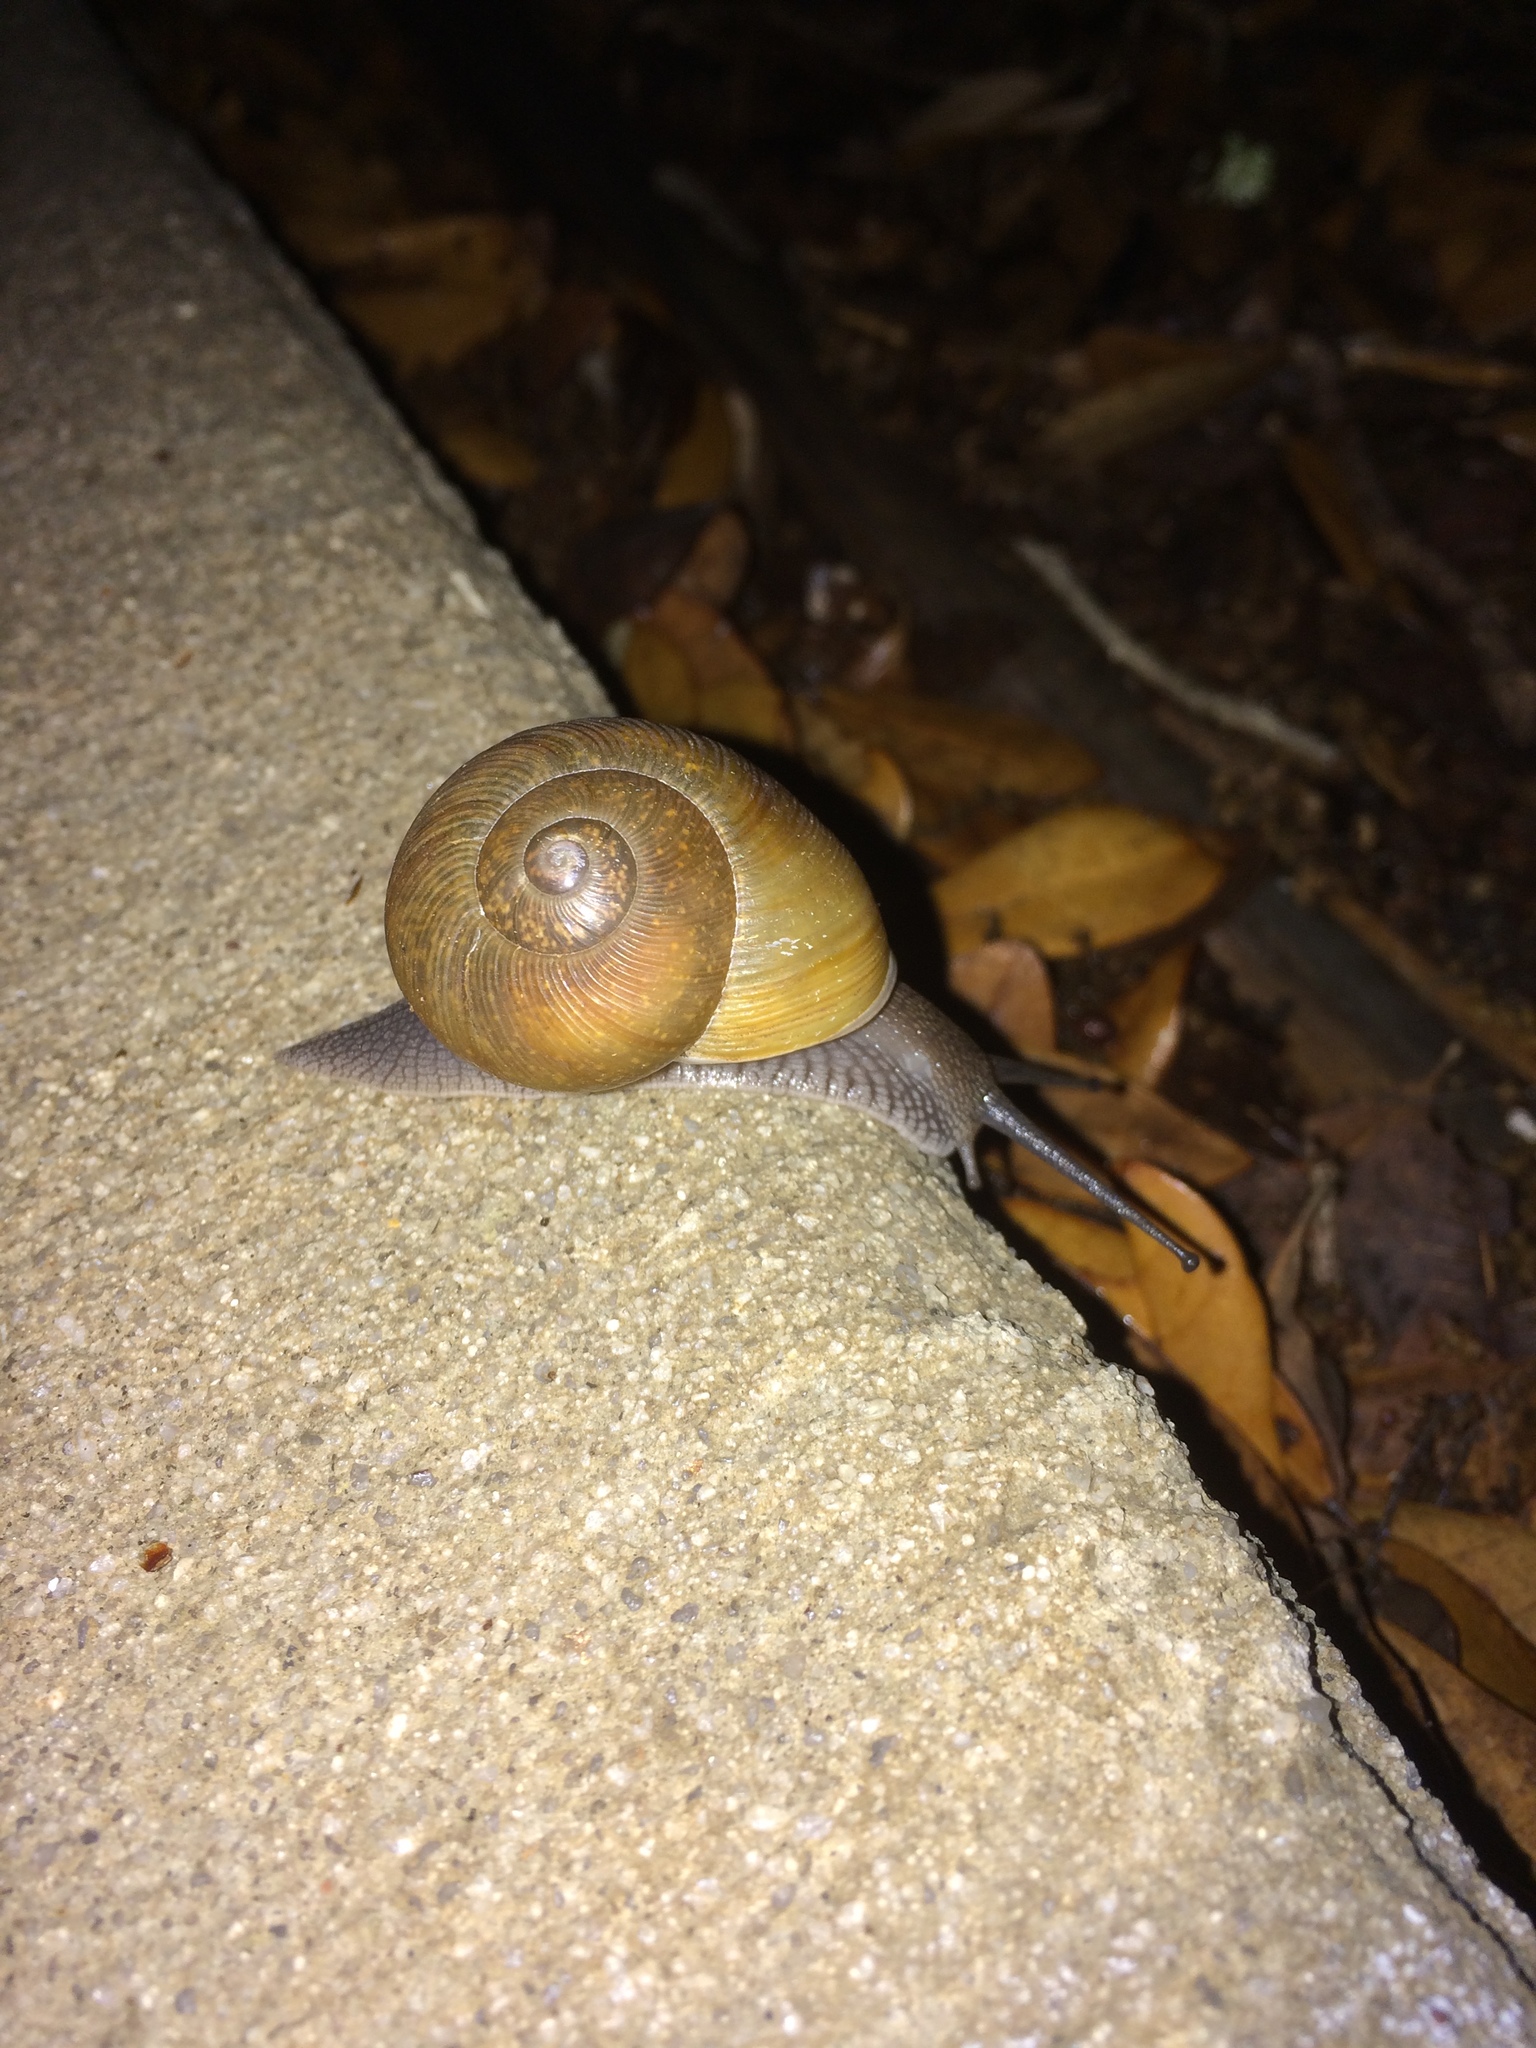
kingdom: Animalia
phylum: Mollusca
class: Gastropoda
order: Stylommatophora
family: Zachrysiidae
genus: Zachrysia
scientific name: Zachrysia provisoria
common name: Garden zachrysia
